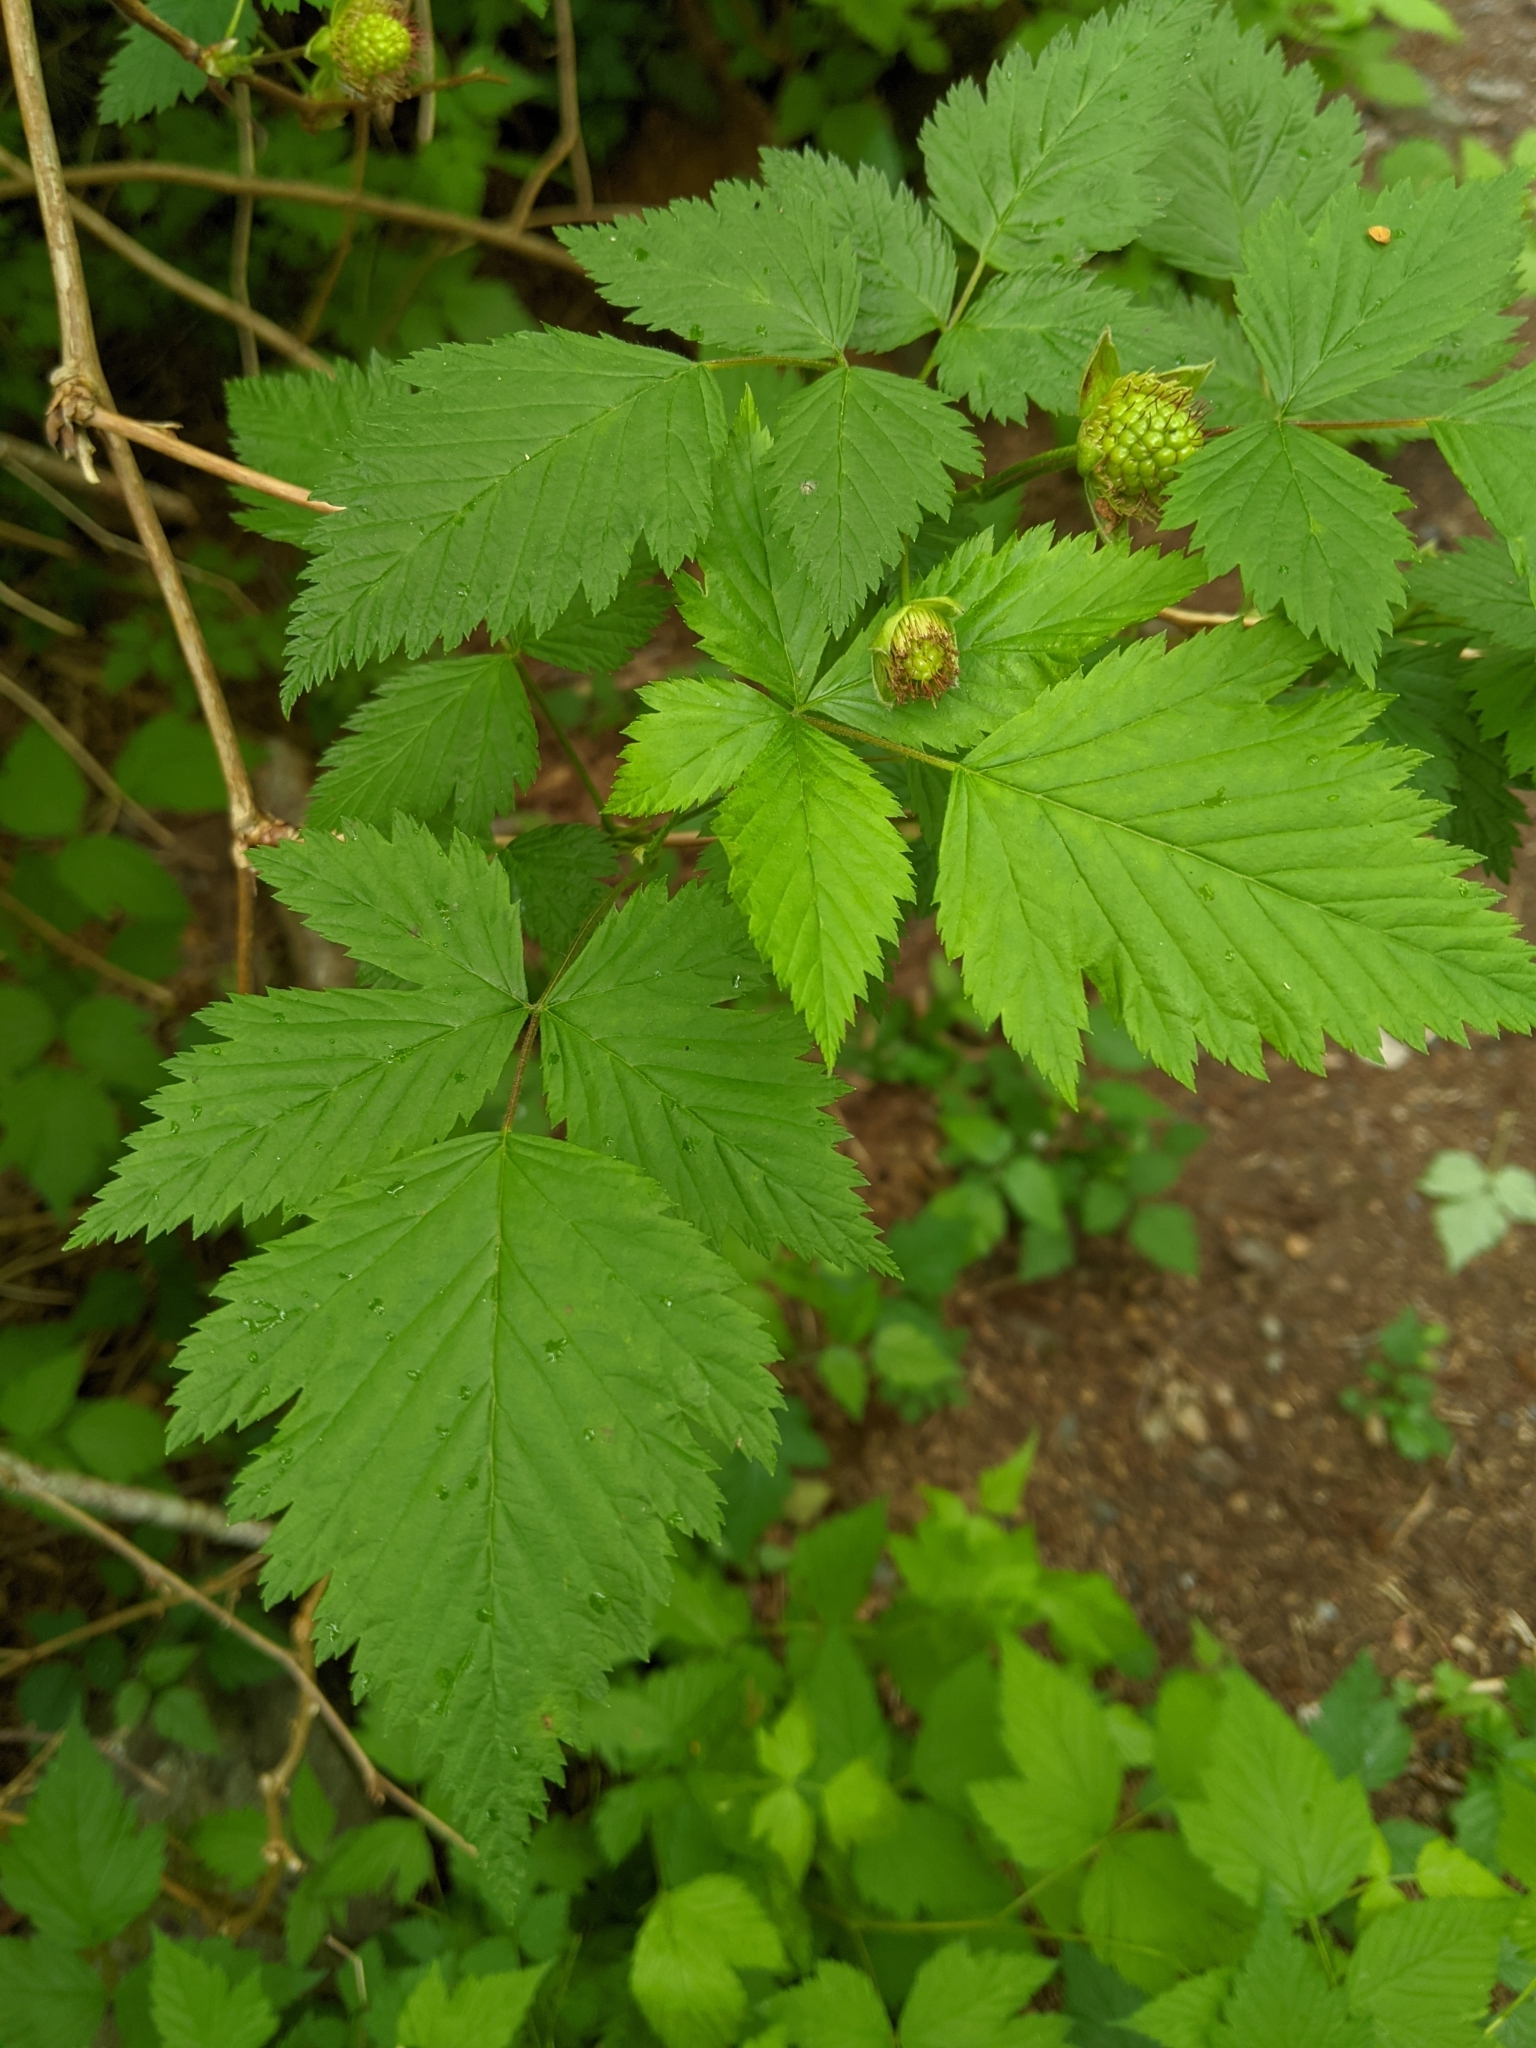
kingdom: Plantae
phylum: Tracheophyta
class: Magnoliopsida
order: Rosales
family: Rosaceae
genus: Rubus
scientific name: Rubus spectabilis
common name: Salmonberry
